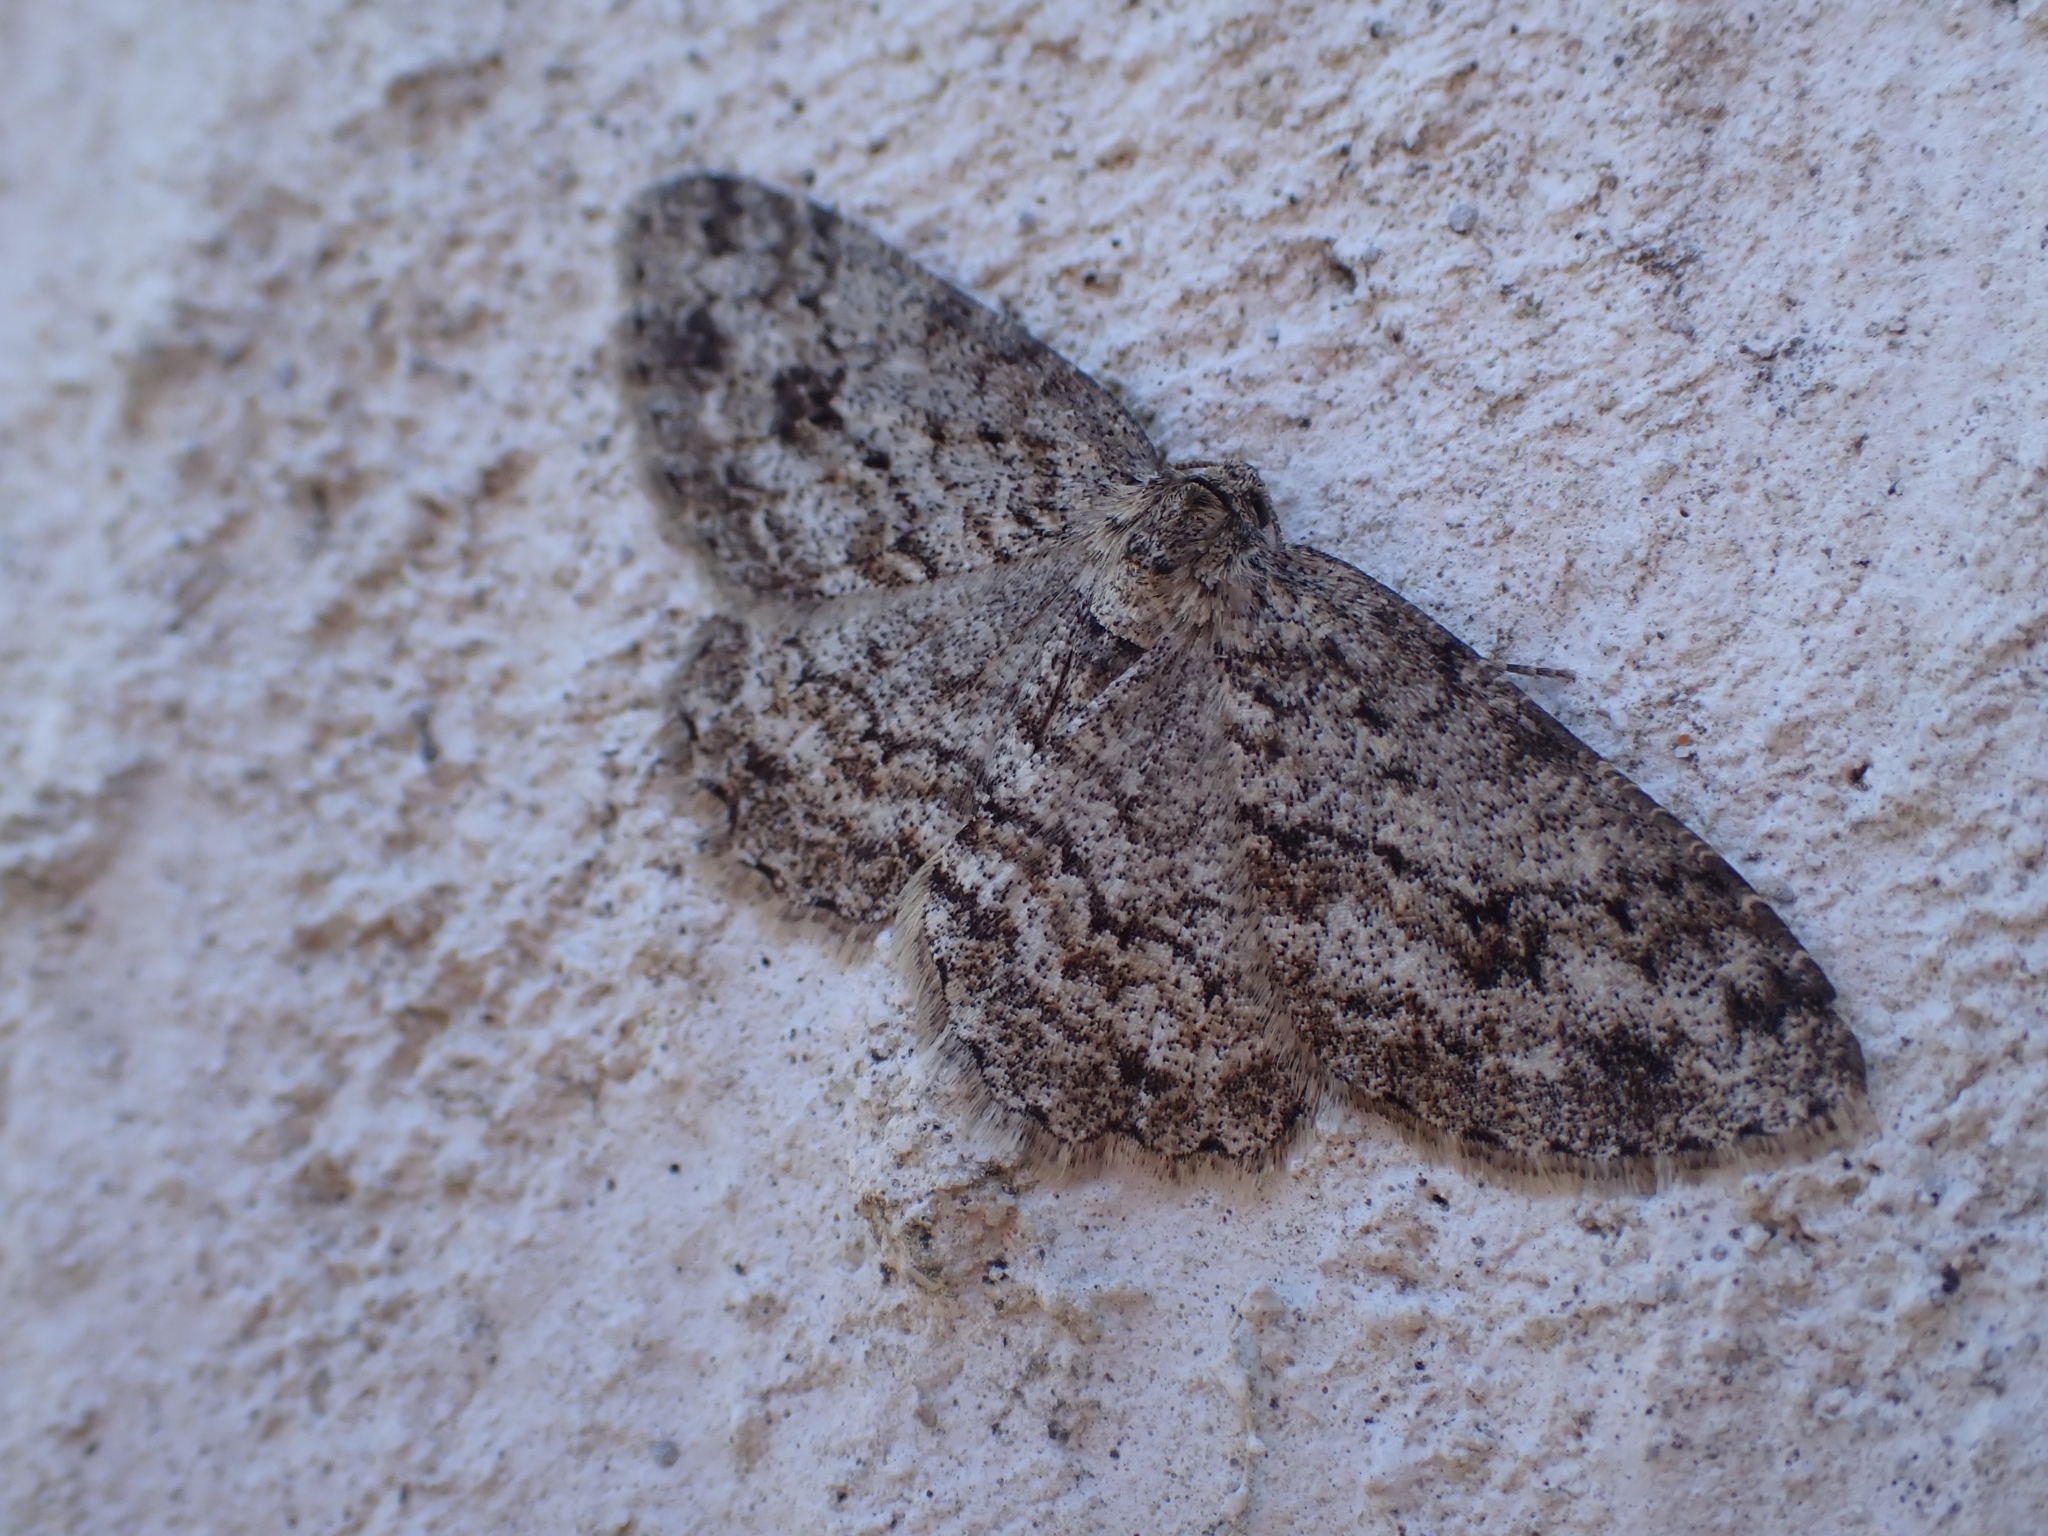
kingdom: Animalia
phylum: Arthropoda
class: Insecta
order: Lepidoptera
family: Geometridae
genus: Ectropis
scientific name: Ectropis crepuscularia
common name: Engrailed
